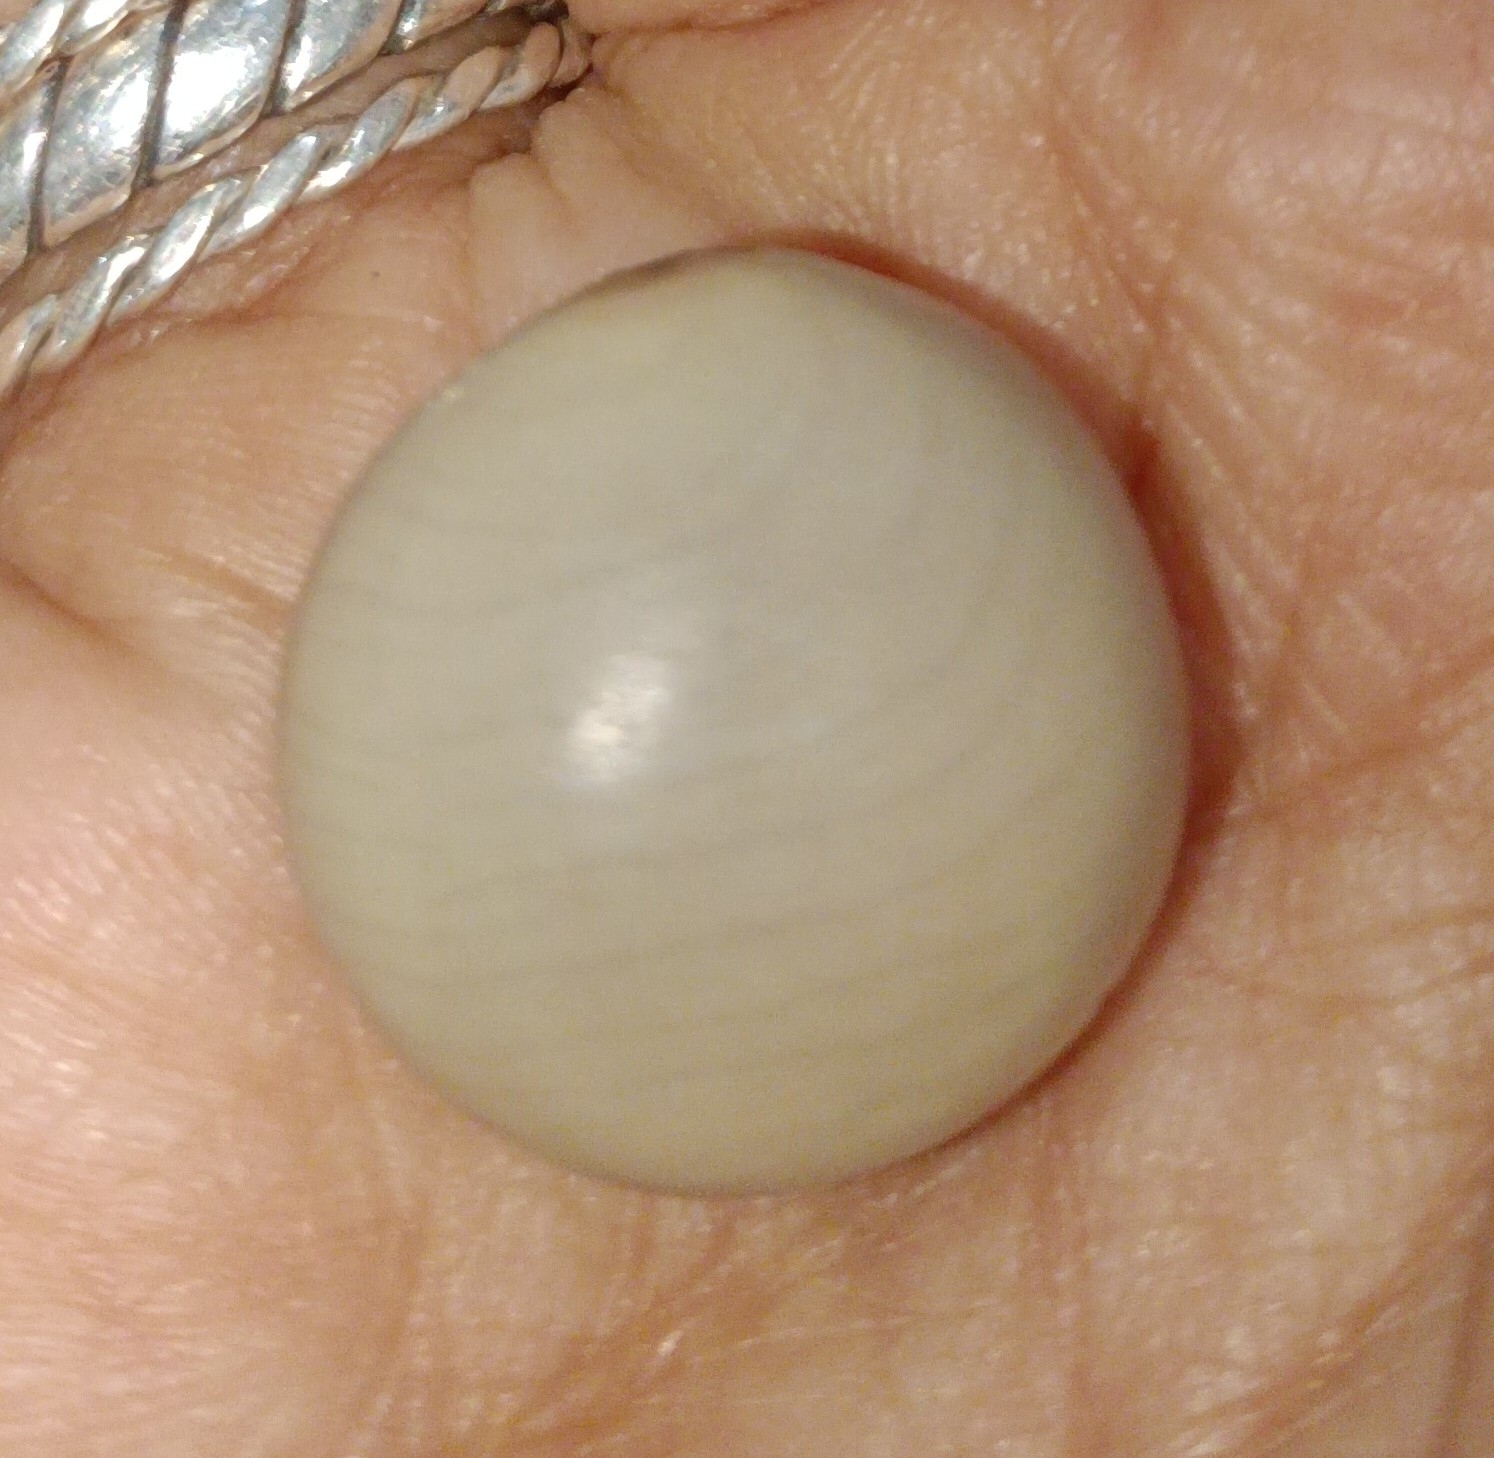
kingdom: Plantae
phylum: Tracheophyta
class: Magnoliopsida
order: Fabales
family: Fabaceae
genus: Guilandina
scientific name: Guilandina bonduc
